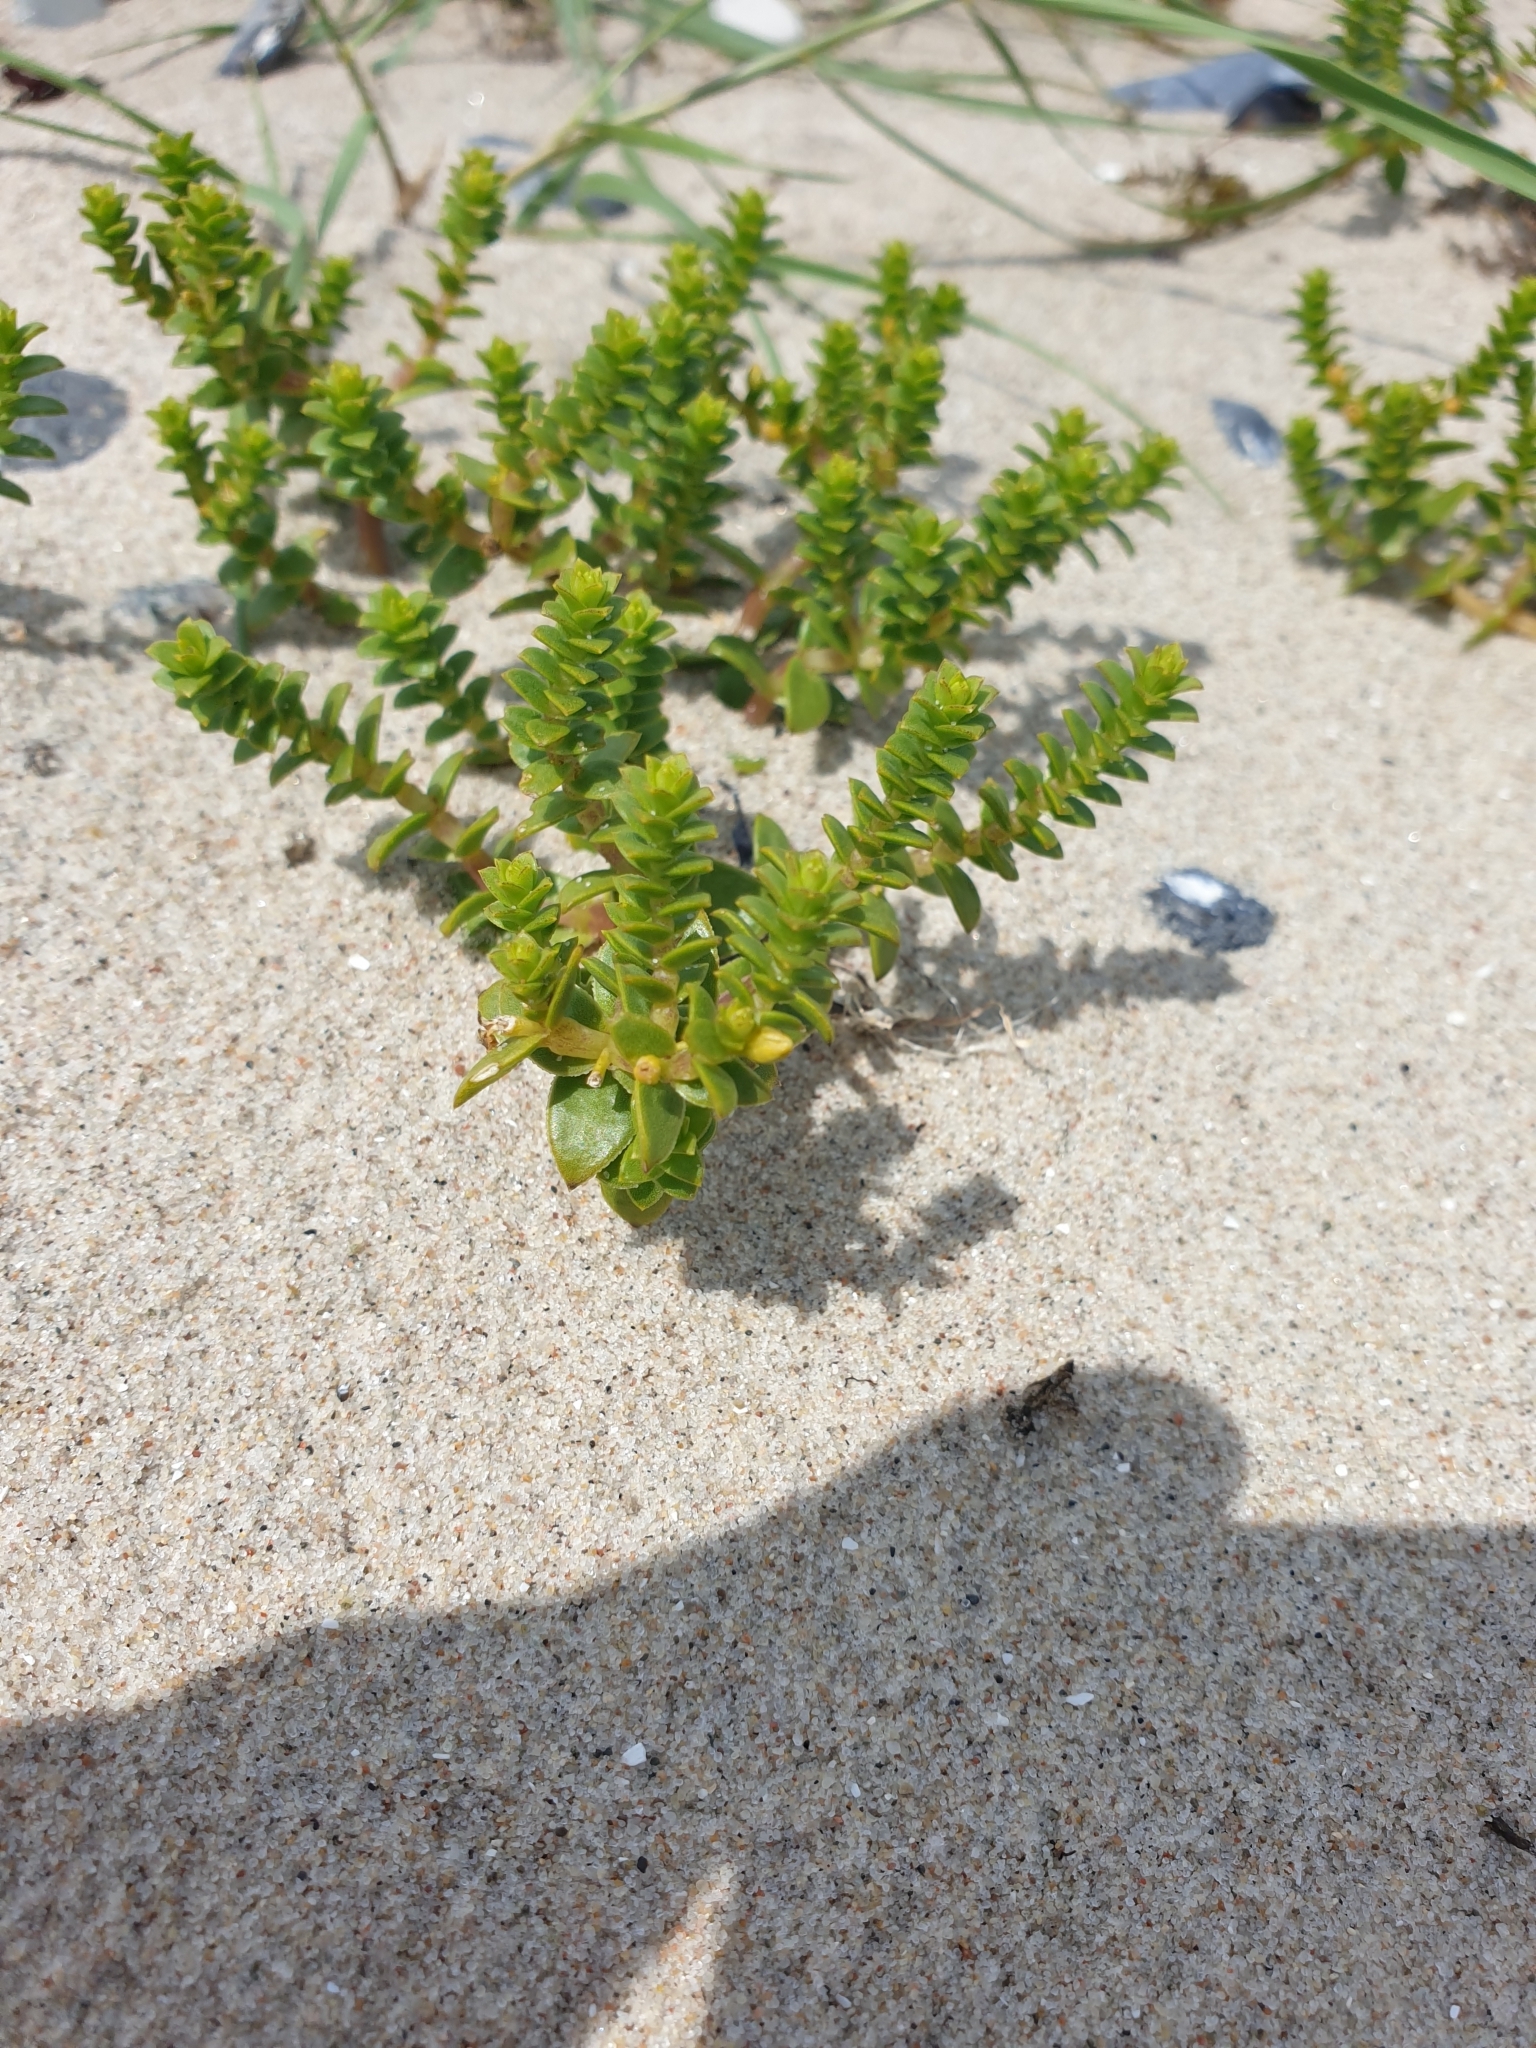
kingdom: Plantae
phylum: Tracheophyta
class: Magnoliopsida
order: Caryophyllales
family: Caryophyllaceae
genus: Honckenya
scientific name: Honckenya peploides
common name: Sea sandwort
